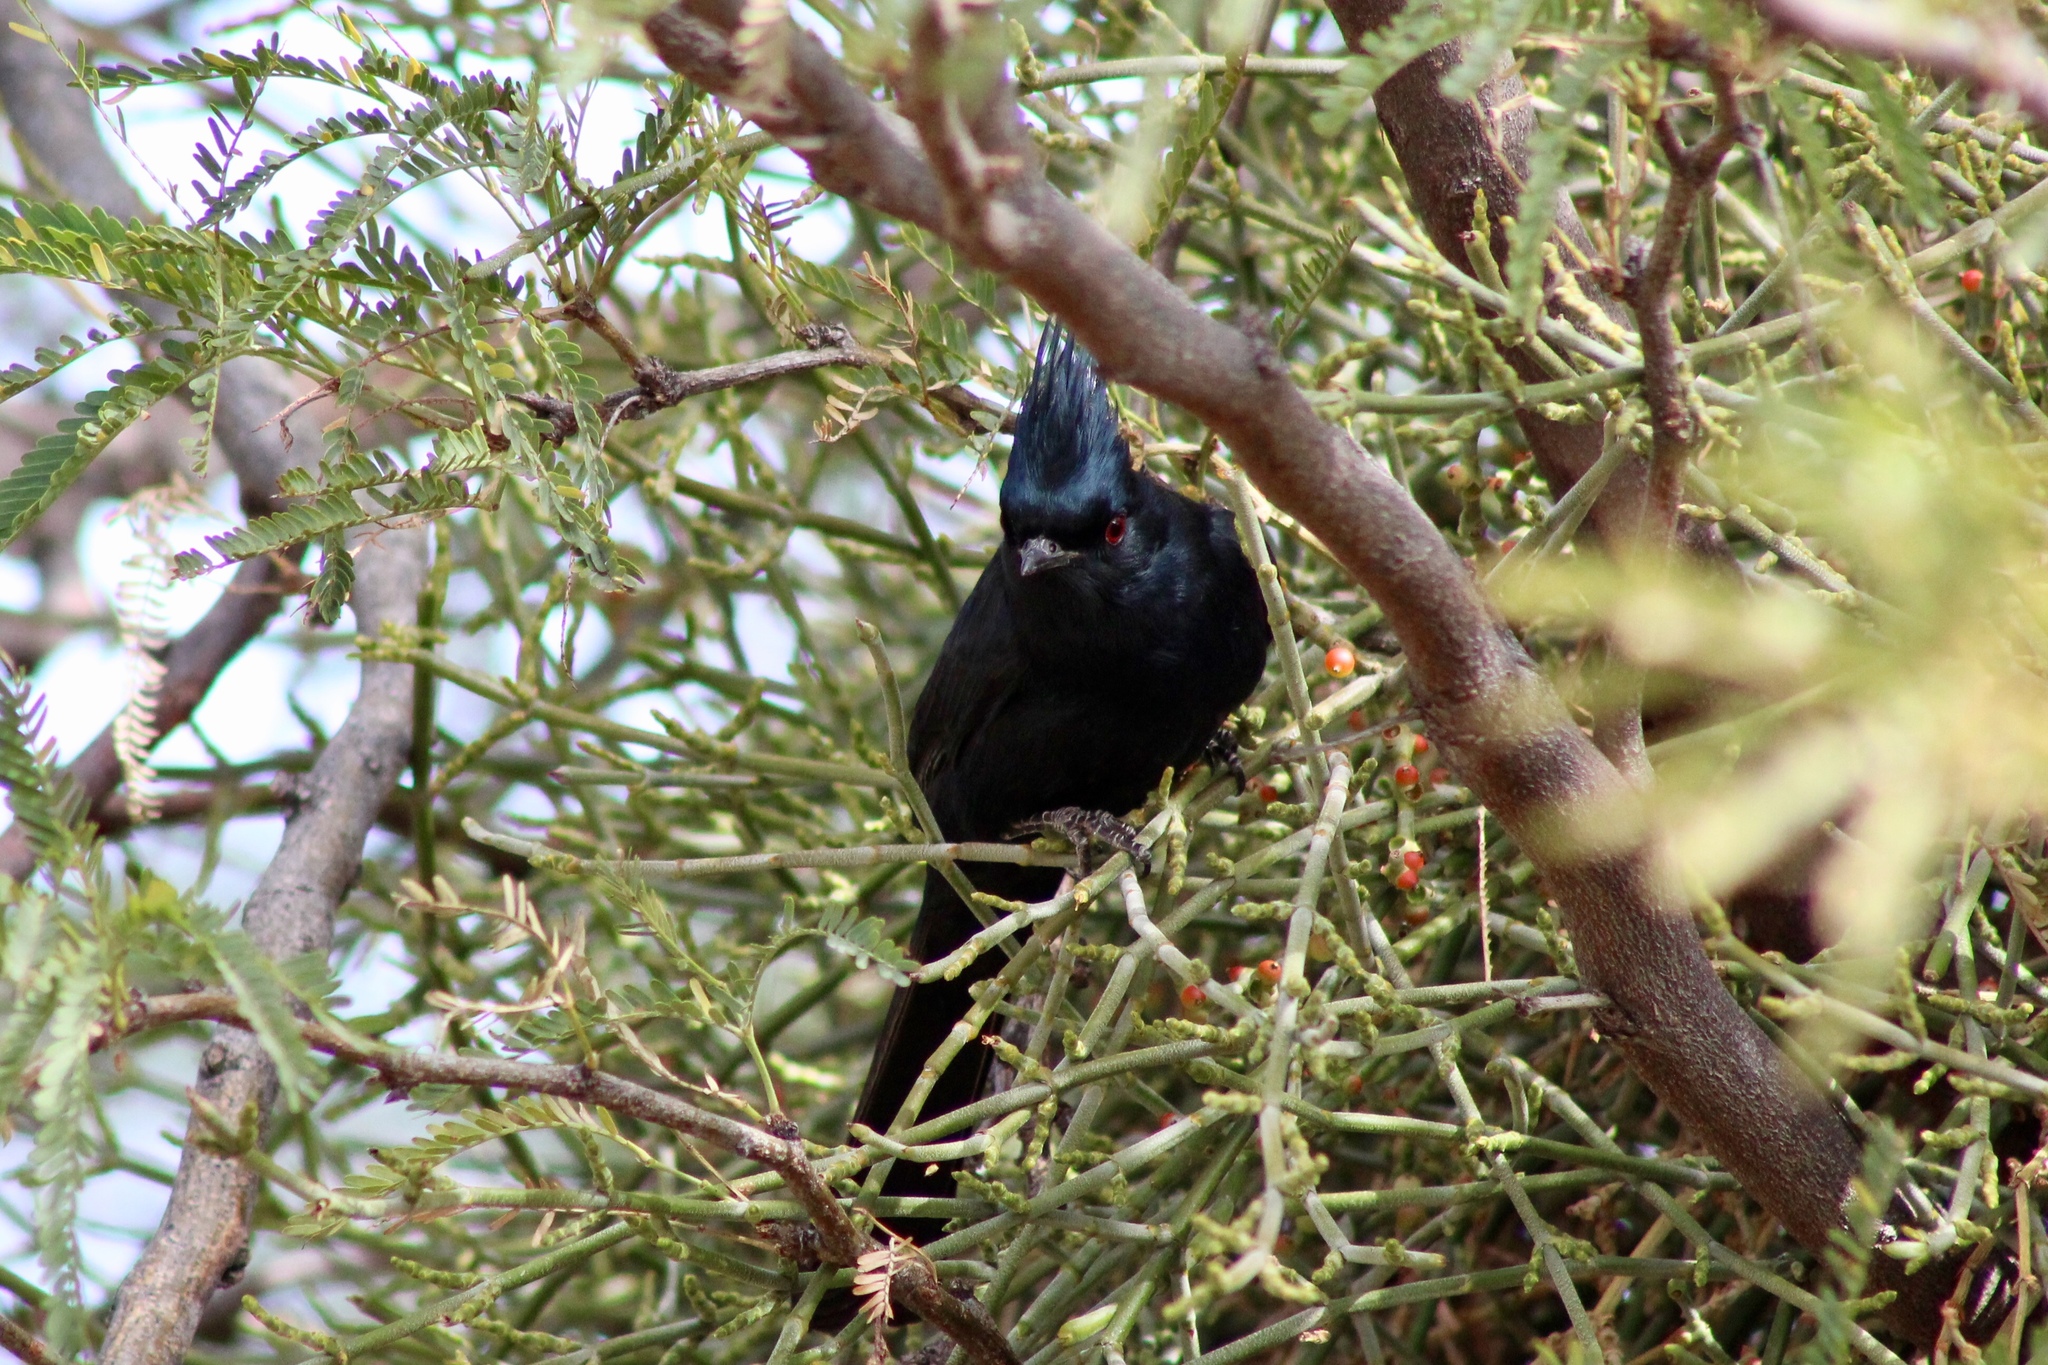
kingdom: Animalia
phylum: Chordata
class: Aves
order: Passeriformes
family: Ptilogonatidae
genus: Phainopepla
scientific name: Phainopepla nitens
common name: Phainopepla
